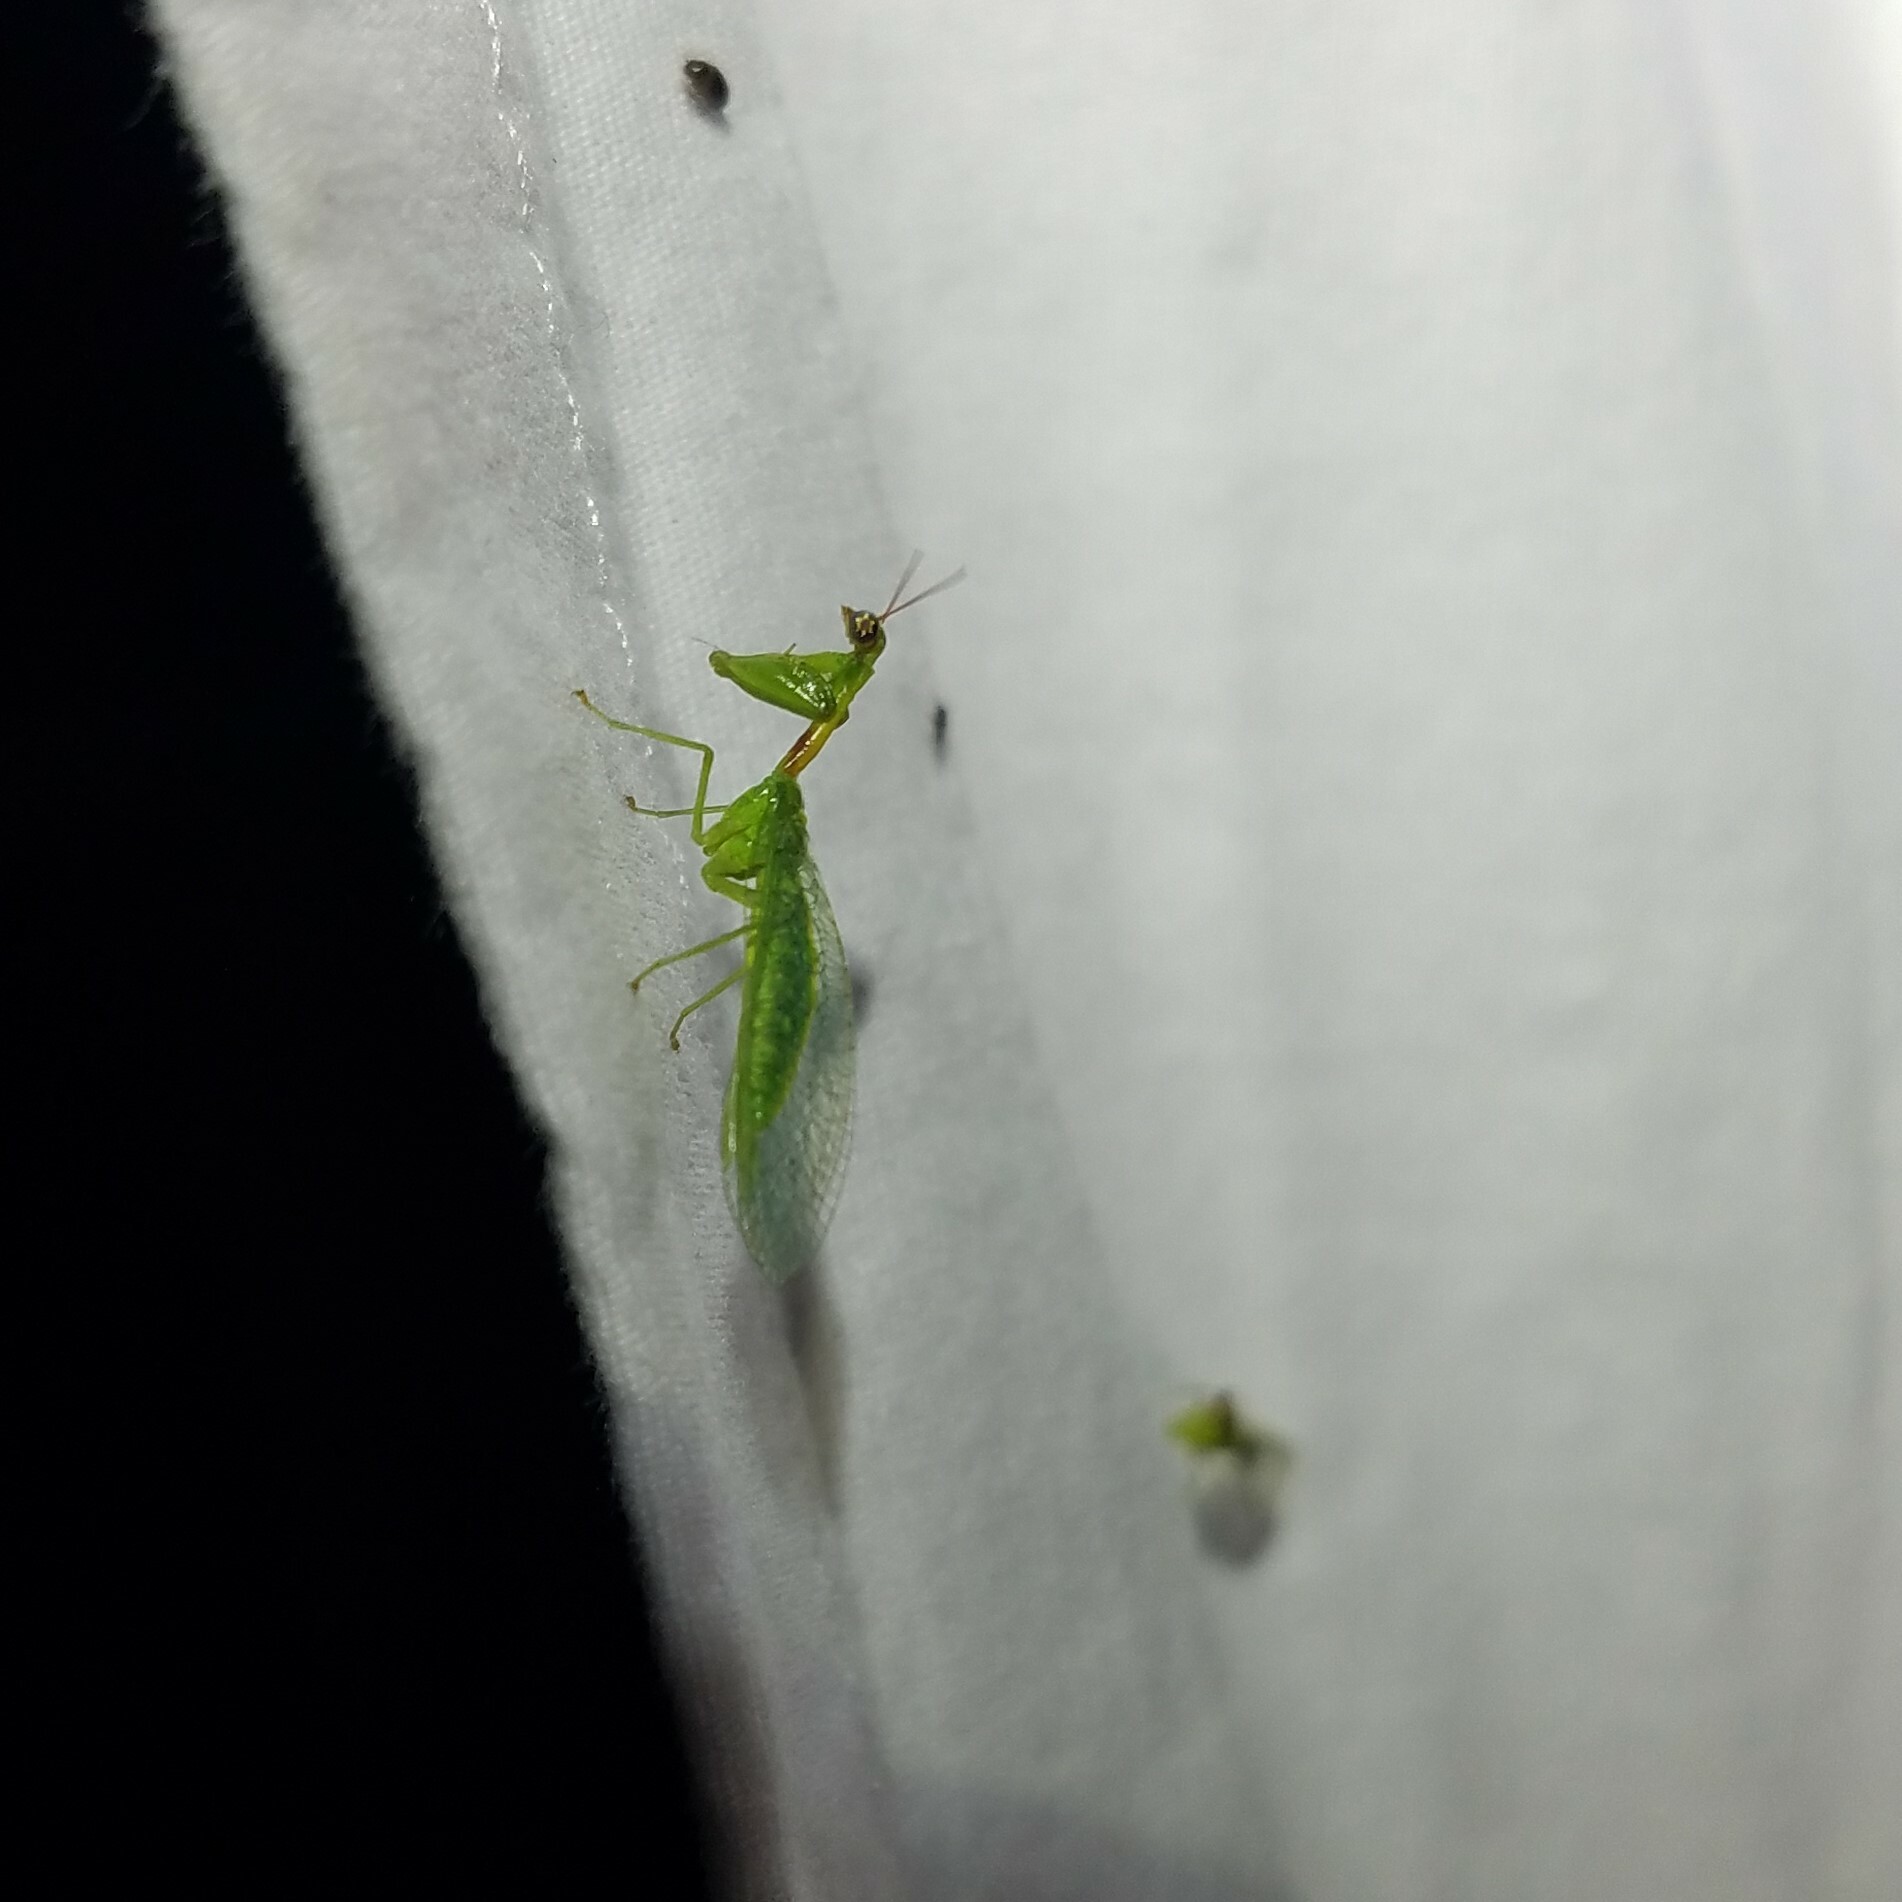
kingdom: Animalia
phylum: Arthropoda
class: Insecta
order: Neuroptera
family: Mantispidae
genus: Zeugomantispa
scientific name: Zeugomantispa minuta
